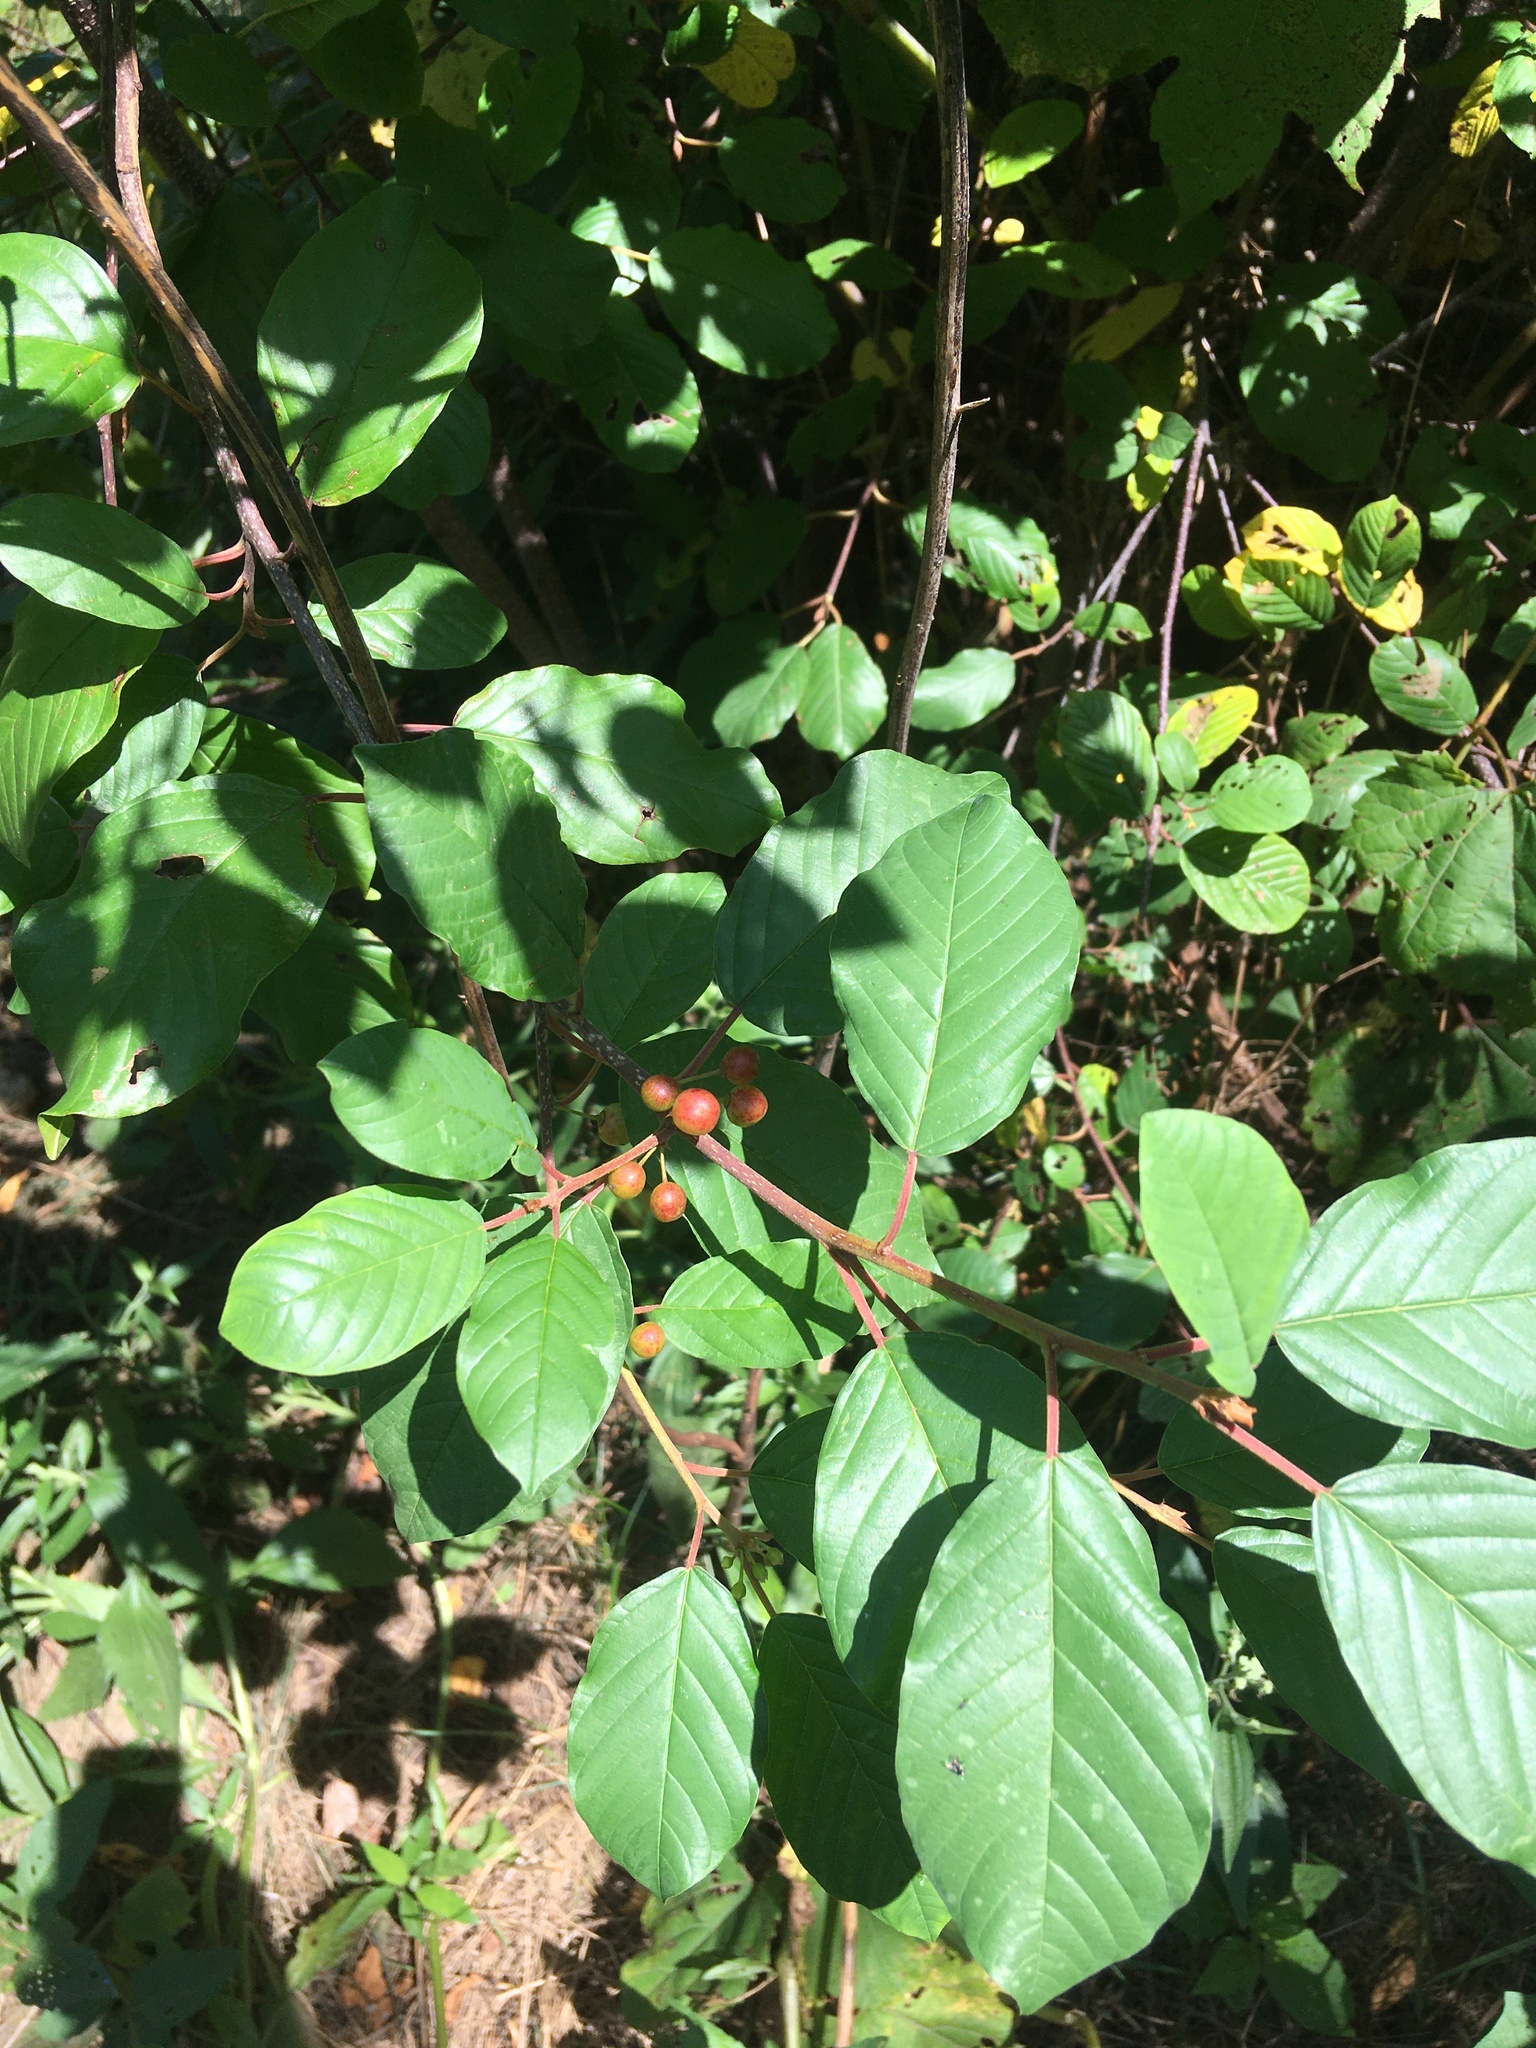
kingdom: Plantae
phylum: Tracheophyta
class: Magnoliopsida
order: Rosales
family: Rhamnaceae
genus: Frangula
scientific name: Frangula alnus
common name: Alder buckthorn
